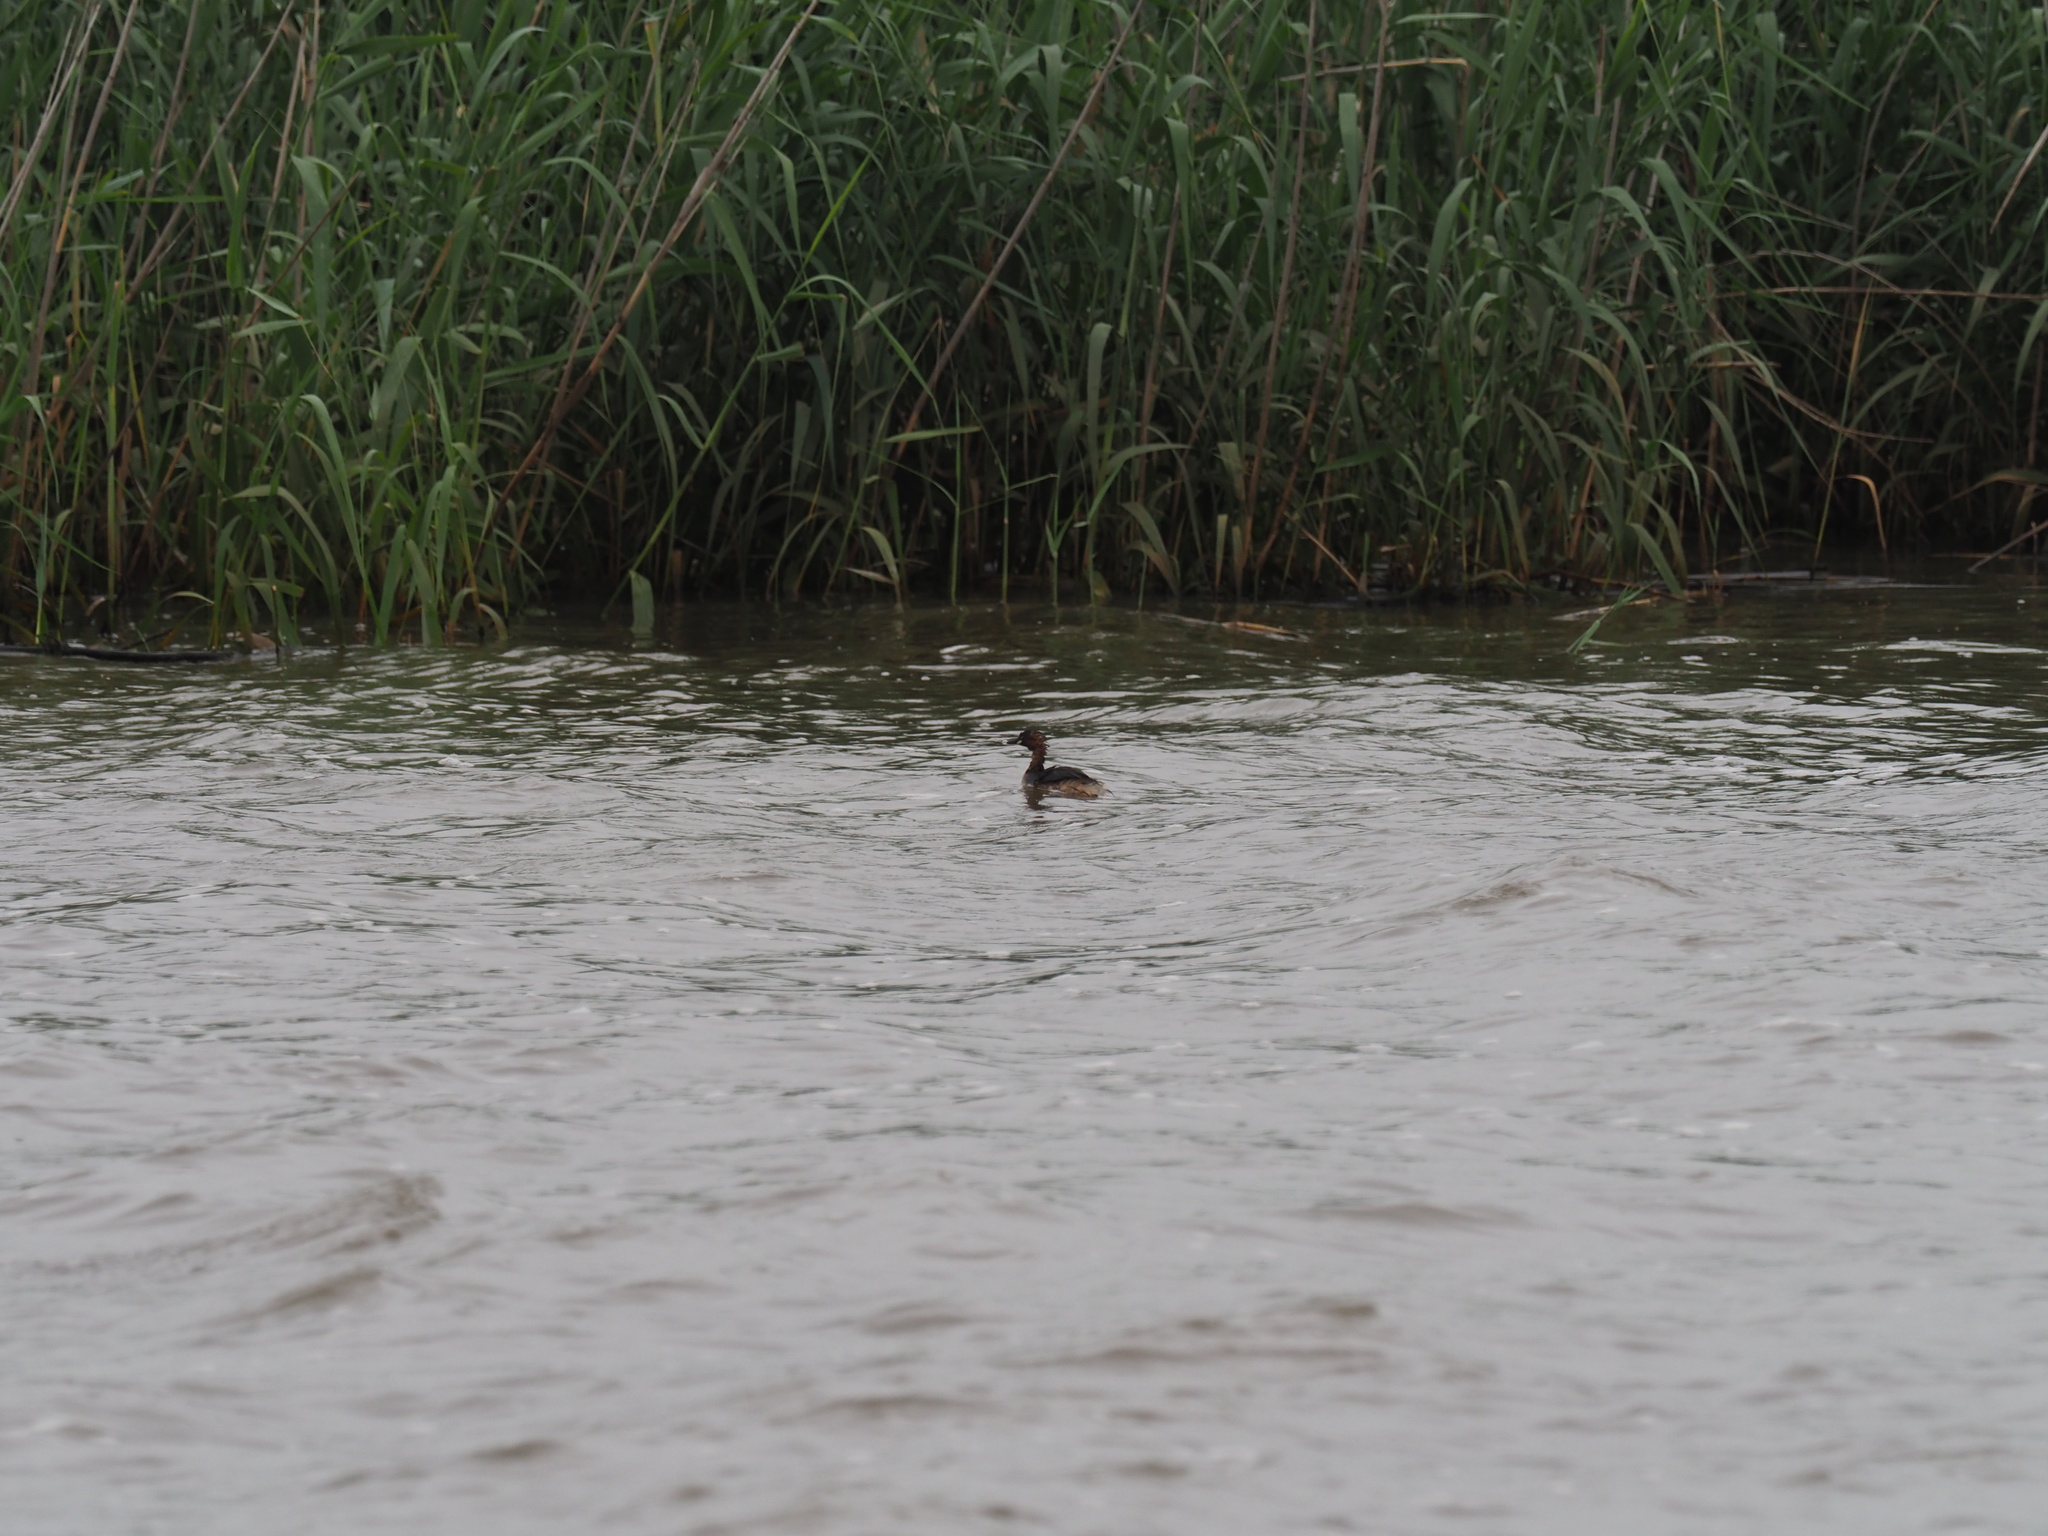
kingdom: Animalia
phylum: Chordata
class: Aves
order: Podicipediformes
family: Podicipedidae
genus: Tachybaptus
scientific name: Tachybaptus ruficollis
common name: Little grebe
